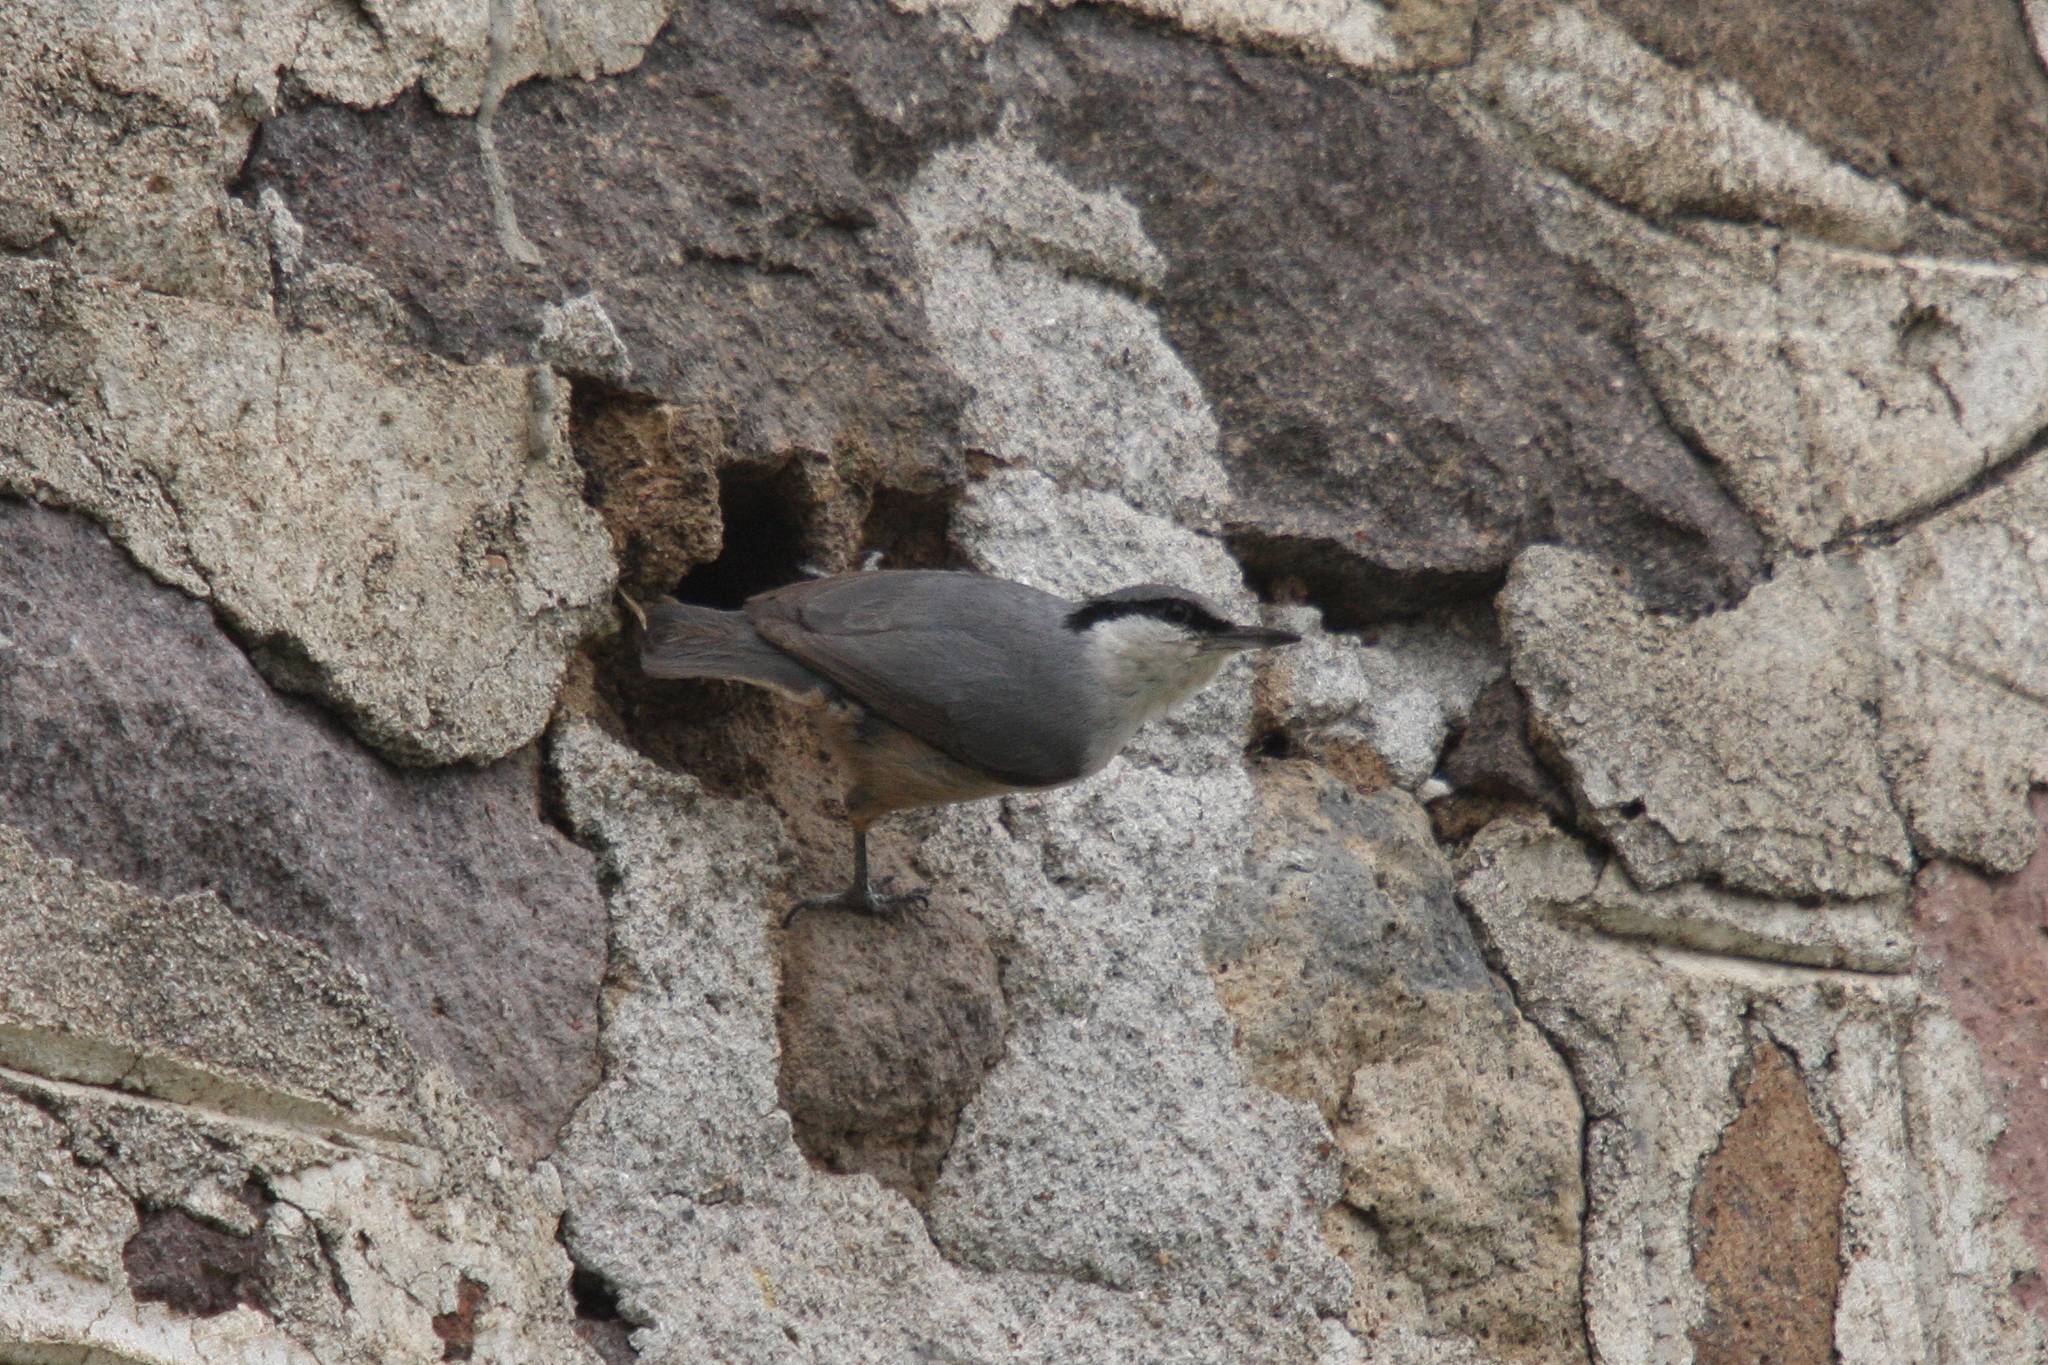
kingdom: Animalia
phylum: Chordata
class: Aves
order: Passeriformes
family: Sittidae
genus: Sitta
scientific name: Sitta neumayer
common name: Western rock nuthatch
